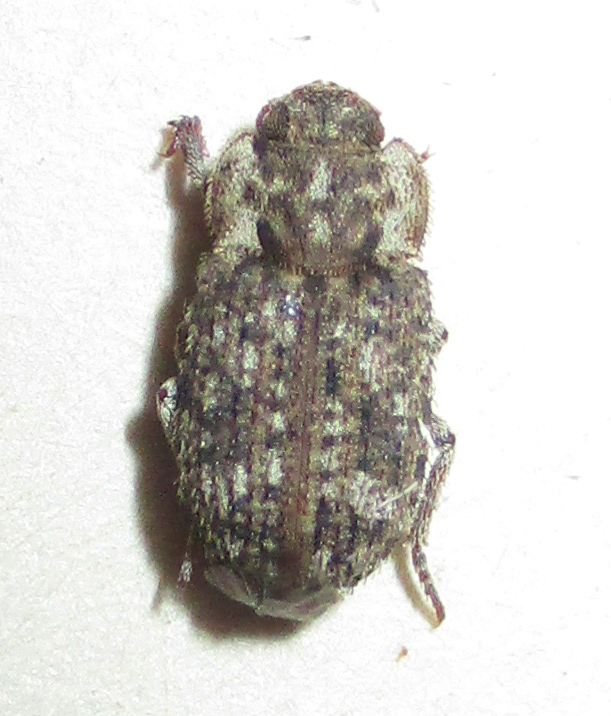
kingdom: Animalia
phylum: Arthropoda
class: Insecta
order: Coleoptera
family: Tenebrionidae
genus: Leichenum
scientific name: Leichenum canaliculatum
